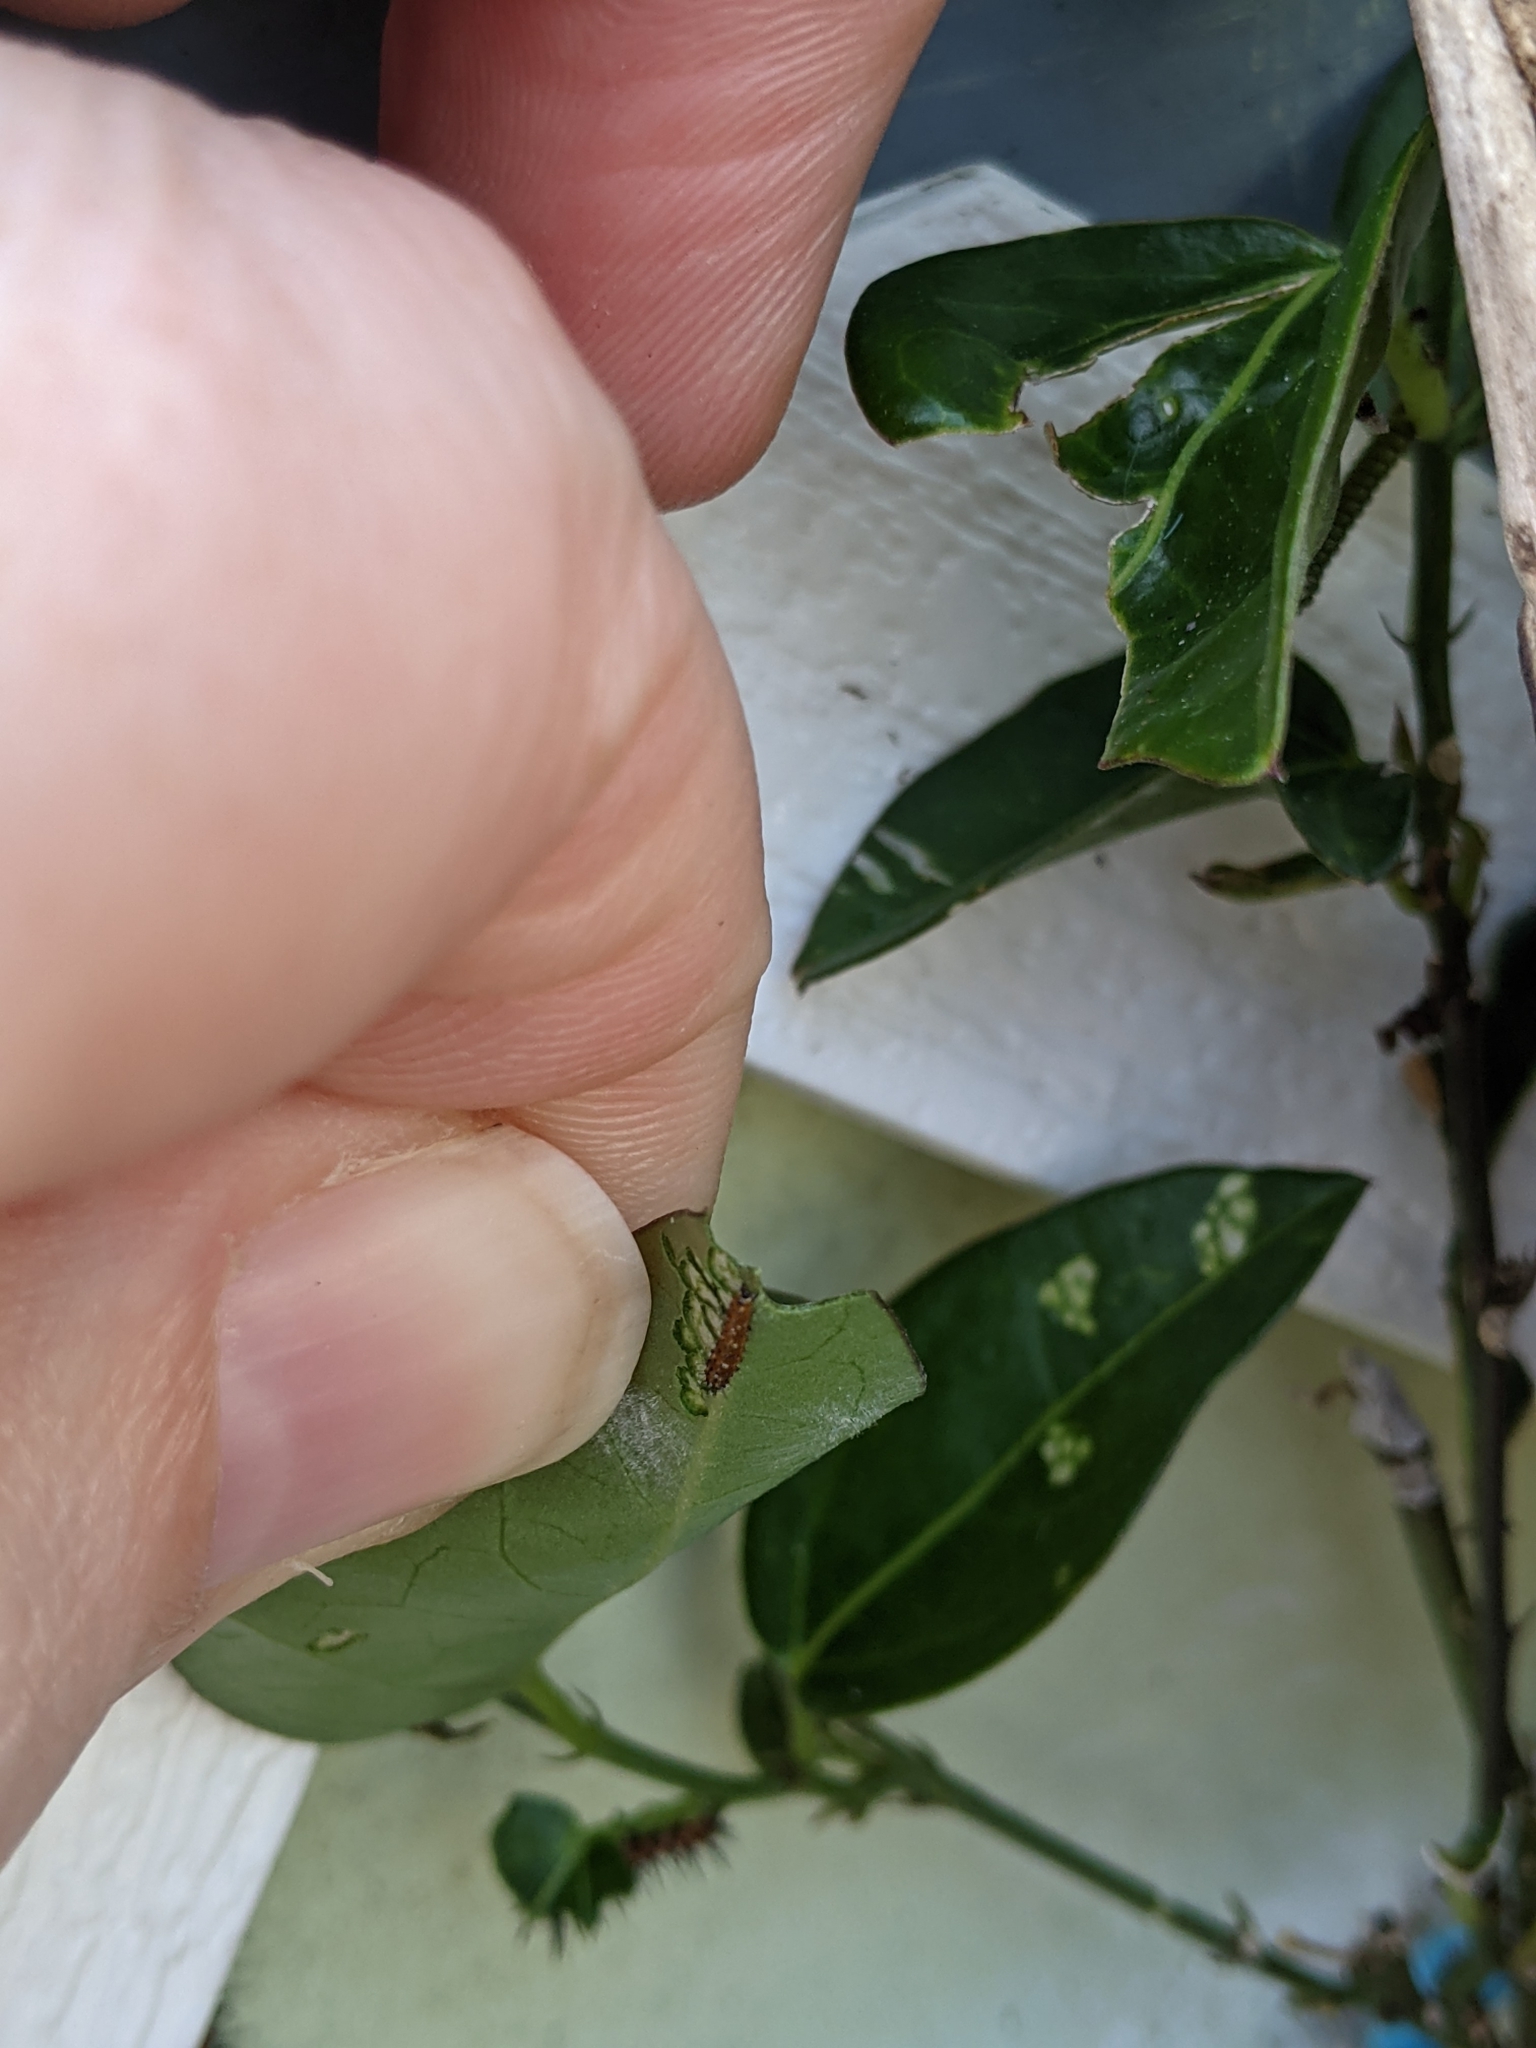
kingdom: Animalia
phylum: Arthropoda
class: Insecta
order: Lepidoptera
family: Nymphalidae
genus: Dione
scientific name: Dione vanillae
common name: Gulf fritillary
